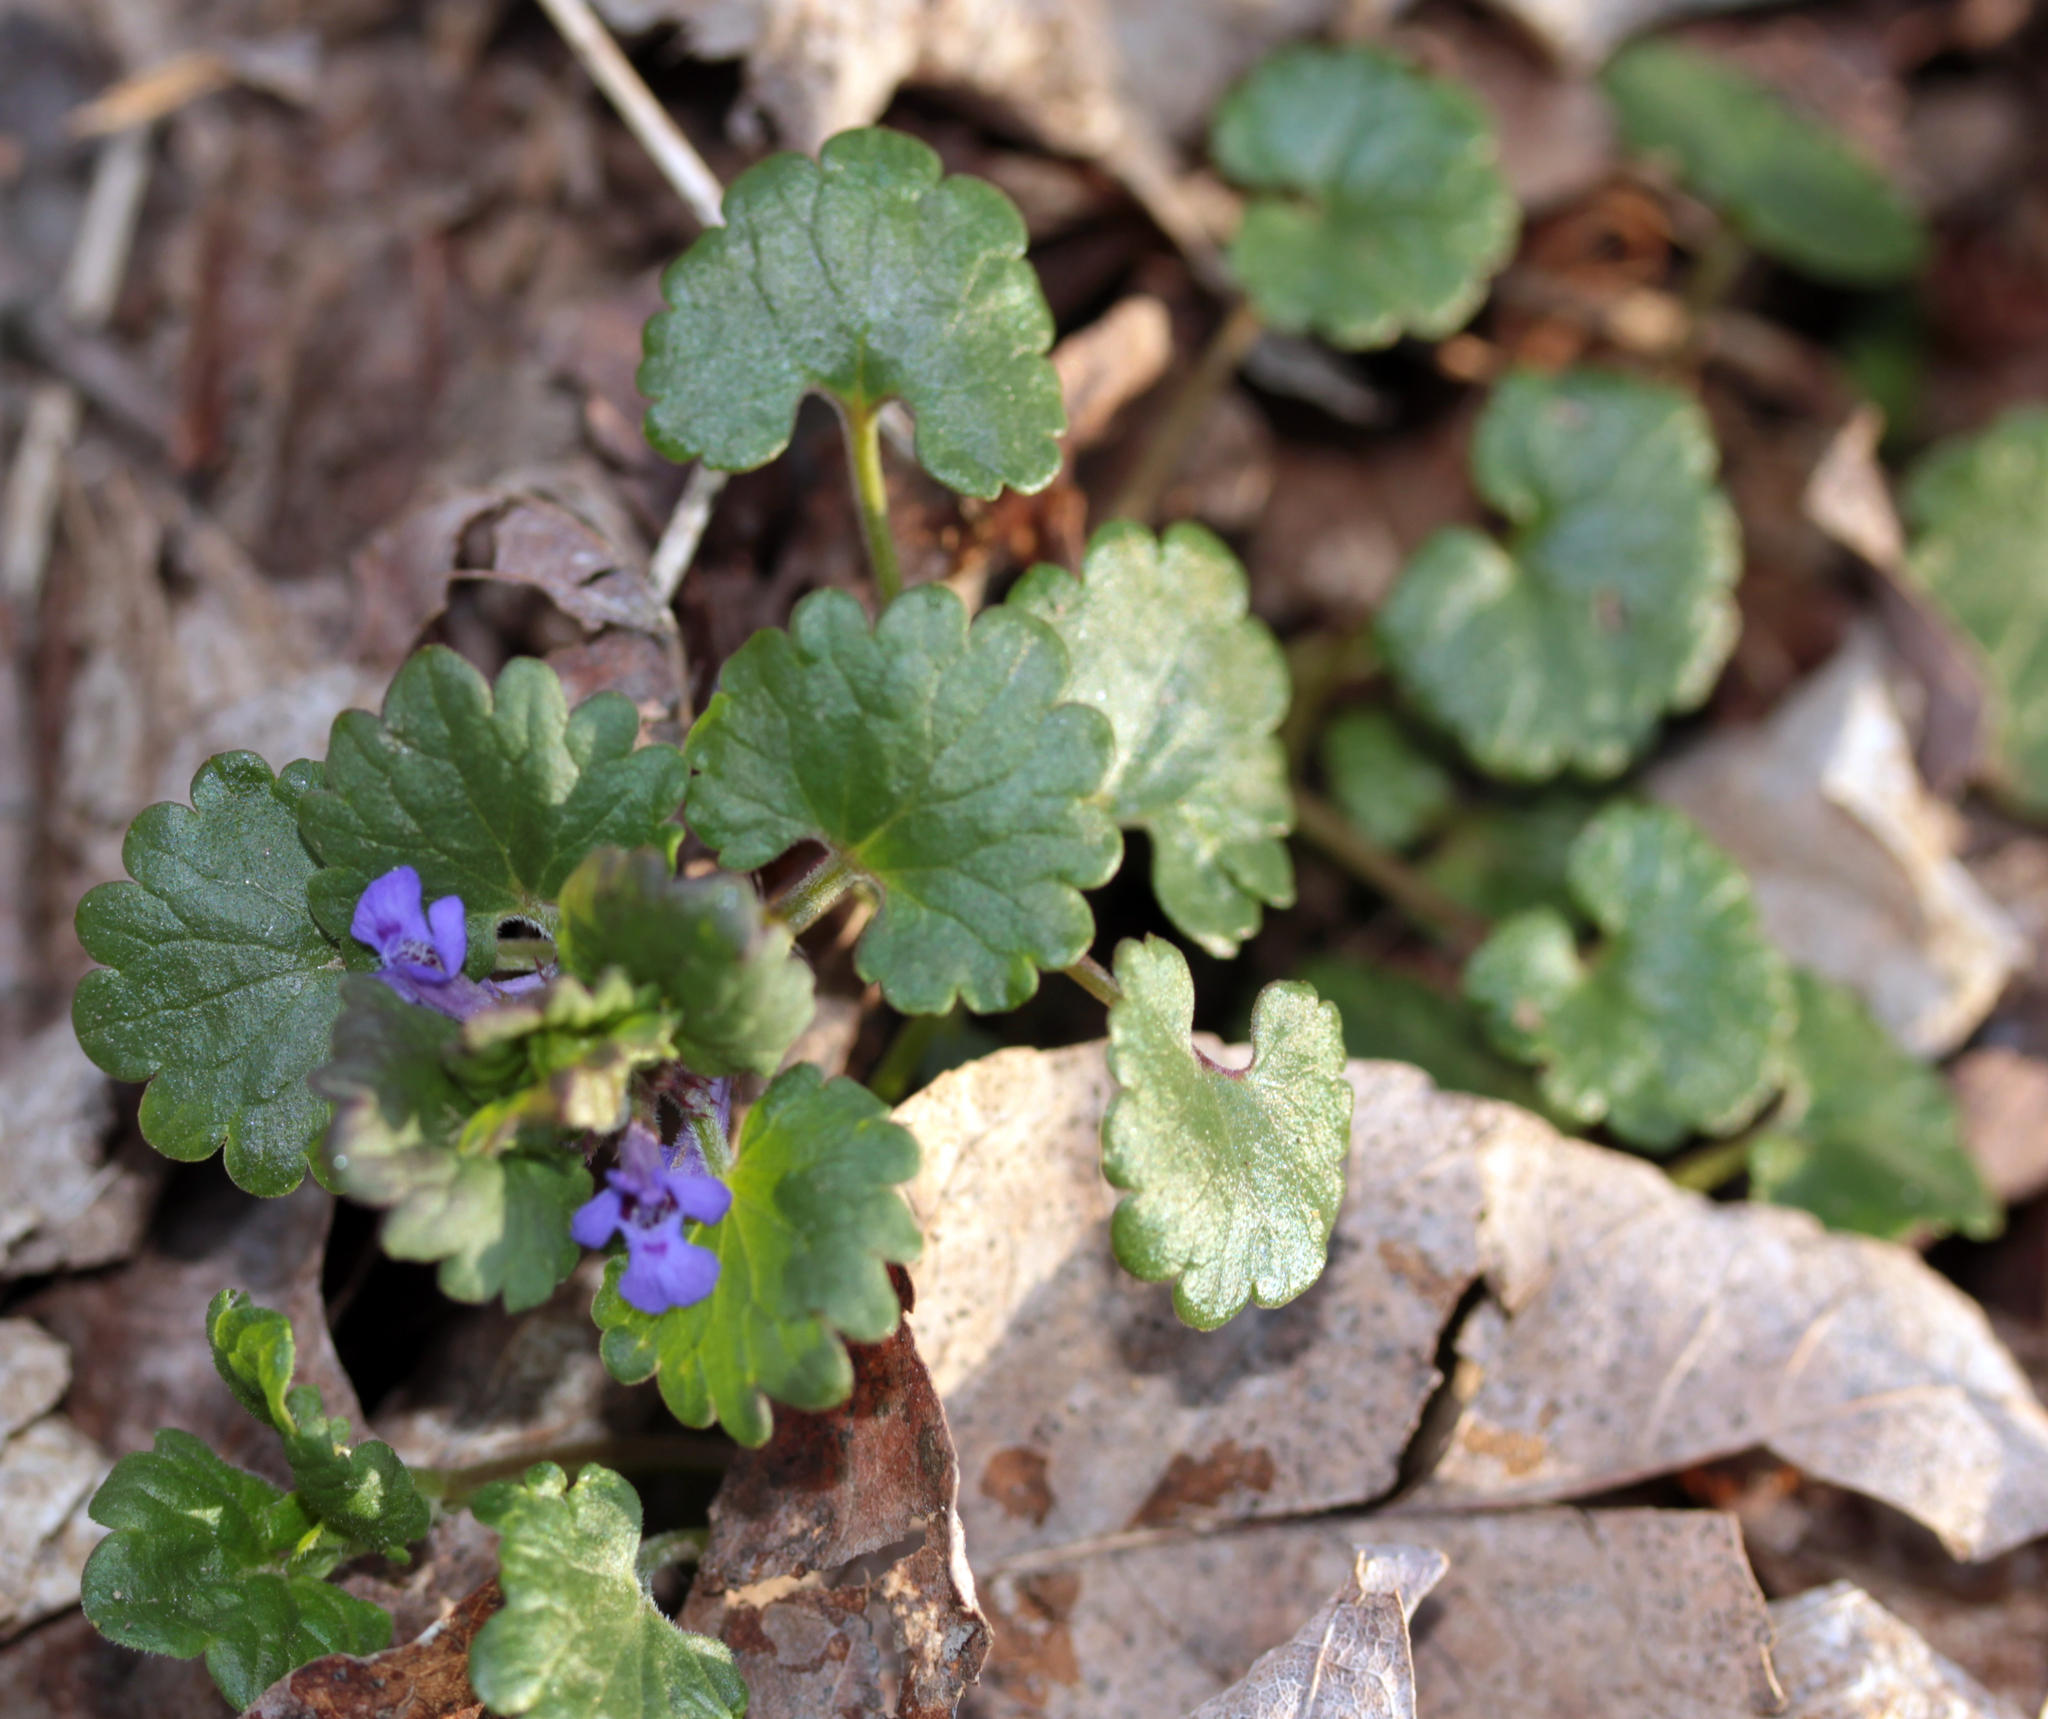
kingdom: Plantae
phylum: Tracheophyta
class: Magnoliopsida
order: Lamiales
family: Lamiaceae
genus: Glechoma
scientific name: Glechoma hederacea
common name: Ground ivy
